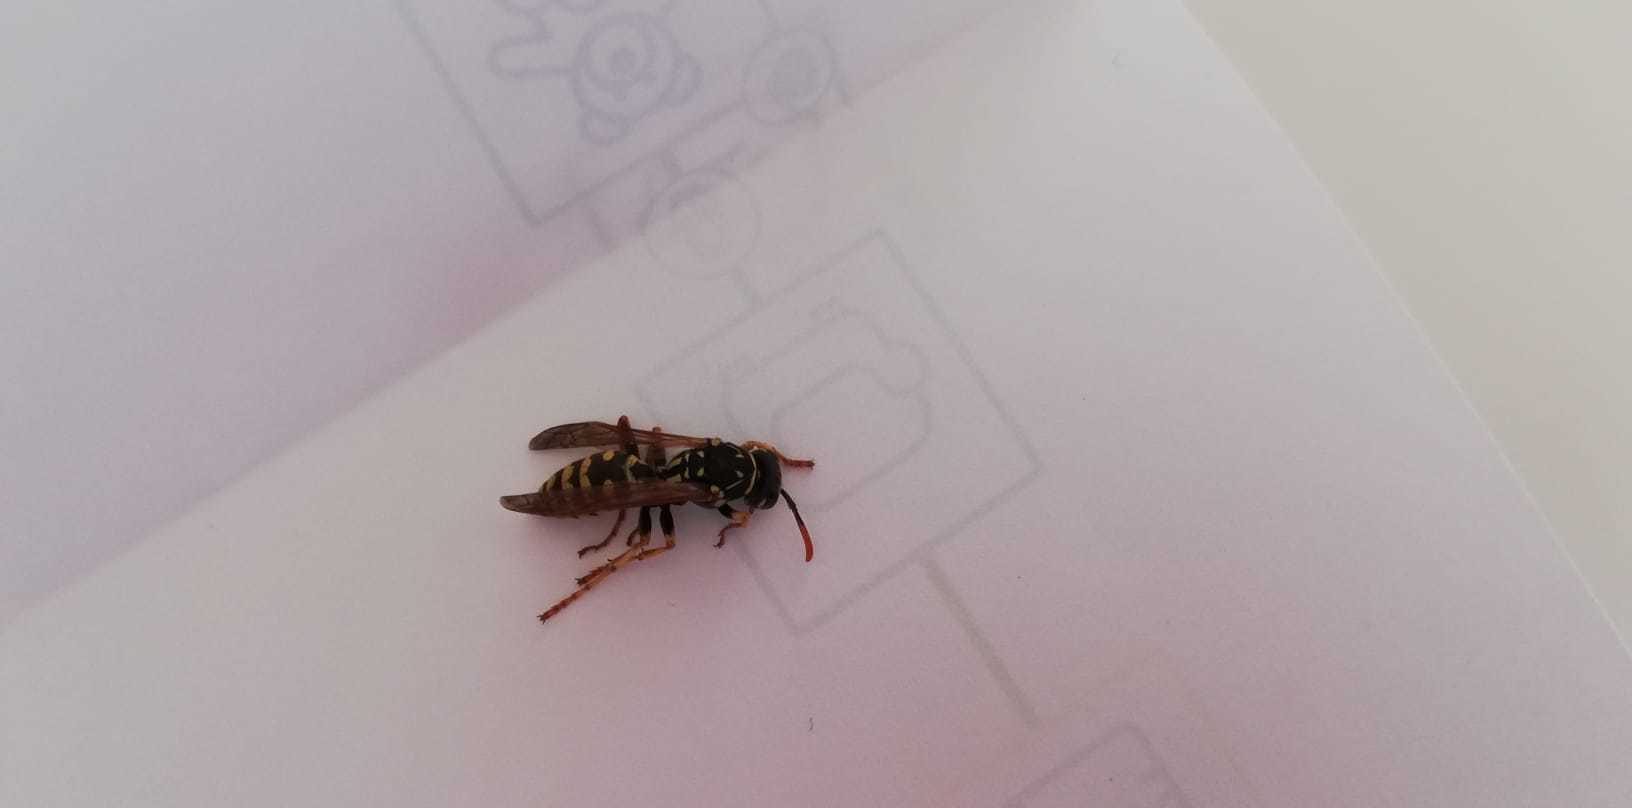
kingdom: Animalia
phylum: Arthropoda
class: Insecta
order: Hymenoptera
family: Eumenidae
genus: Polistes
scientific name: Polistes dominula
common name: Paper wasp
